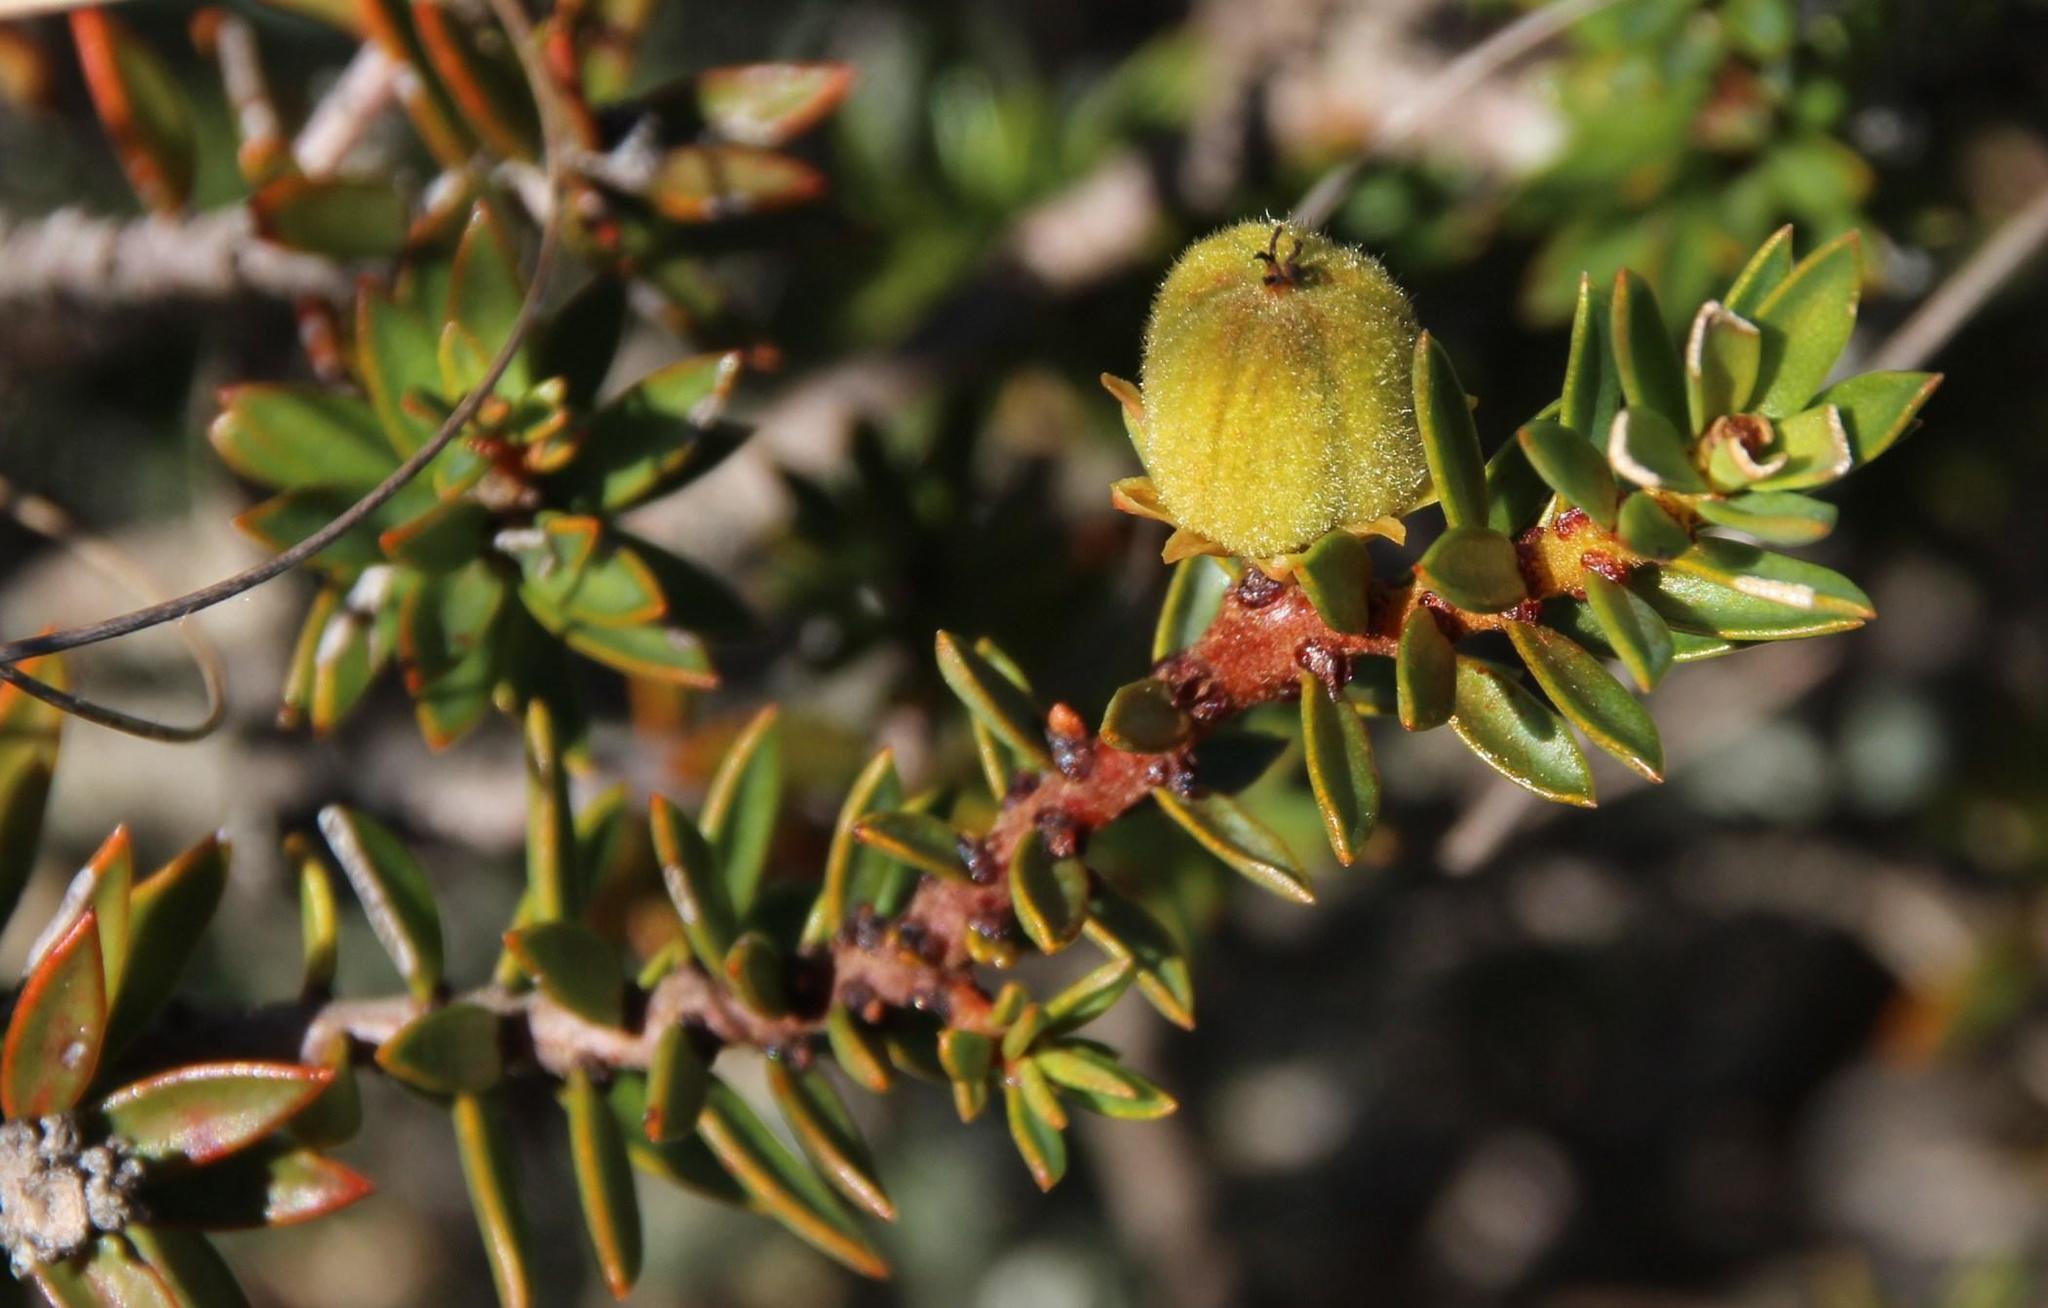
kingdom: Plantae
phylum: Tracheophyta
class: Magnoliopsida
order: Malpighiales
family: Peraceae
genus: Clutia
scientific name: Clutia govaertsii
